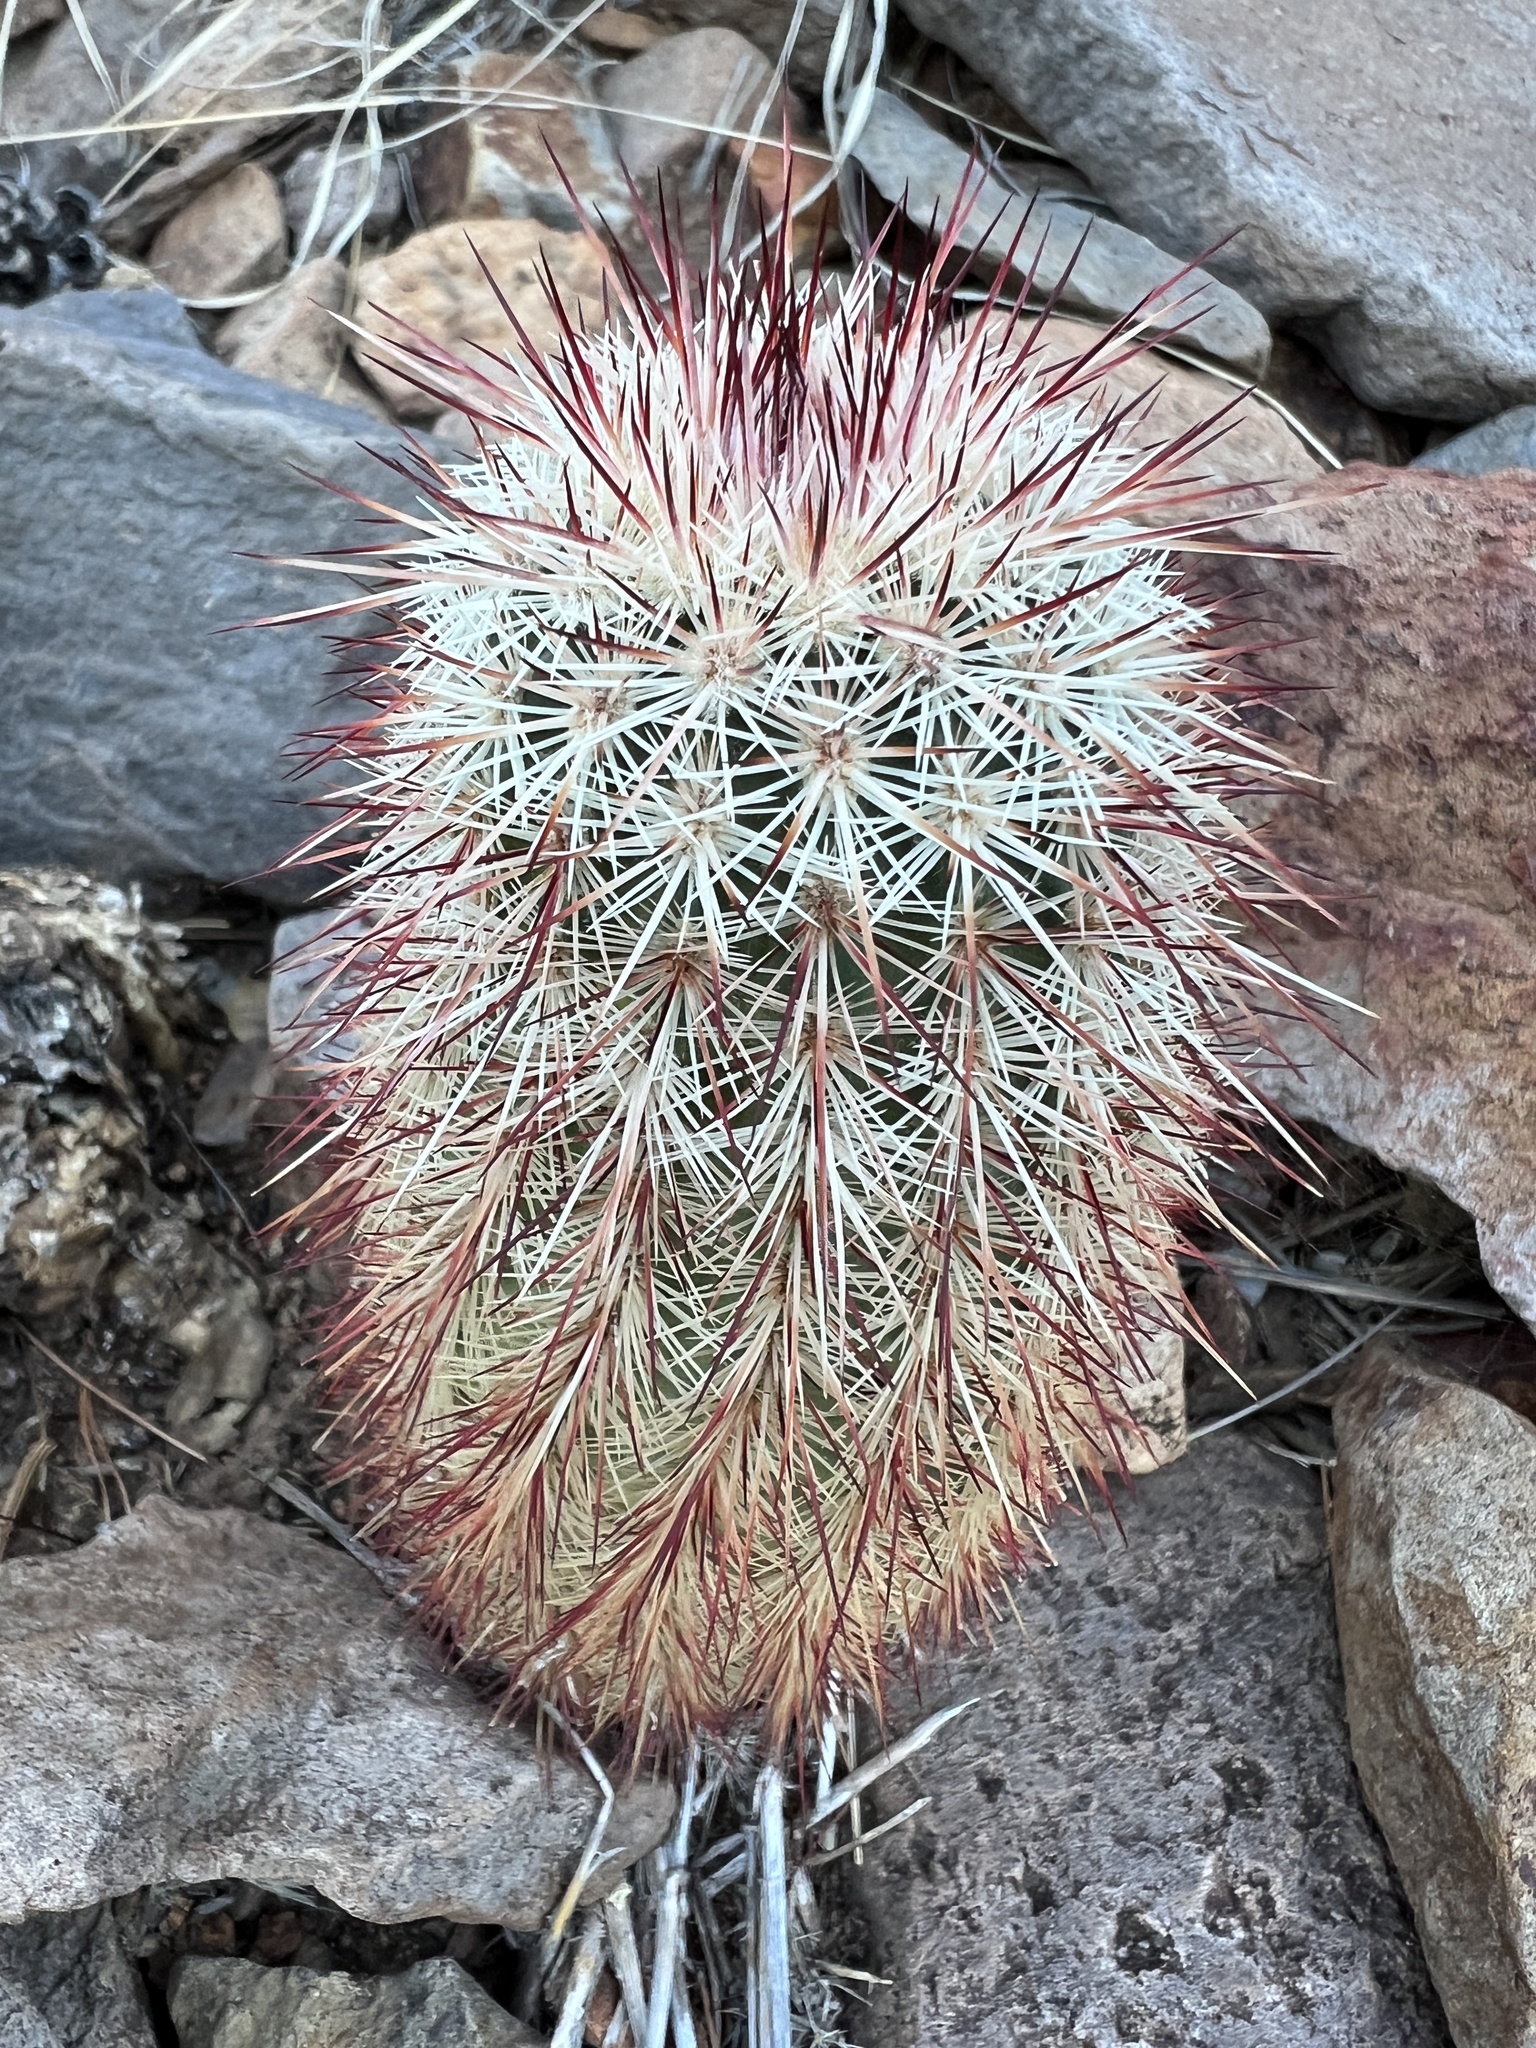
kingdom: Plantae
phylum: Tracheophyta
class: Magnoliopsida
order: Caryophyllales
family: Cactaceae
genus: Echinocereus
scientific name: Echinocereus russanthus
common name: Brownspine hedgehog cactus
